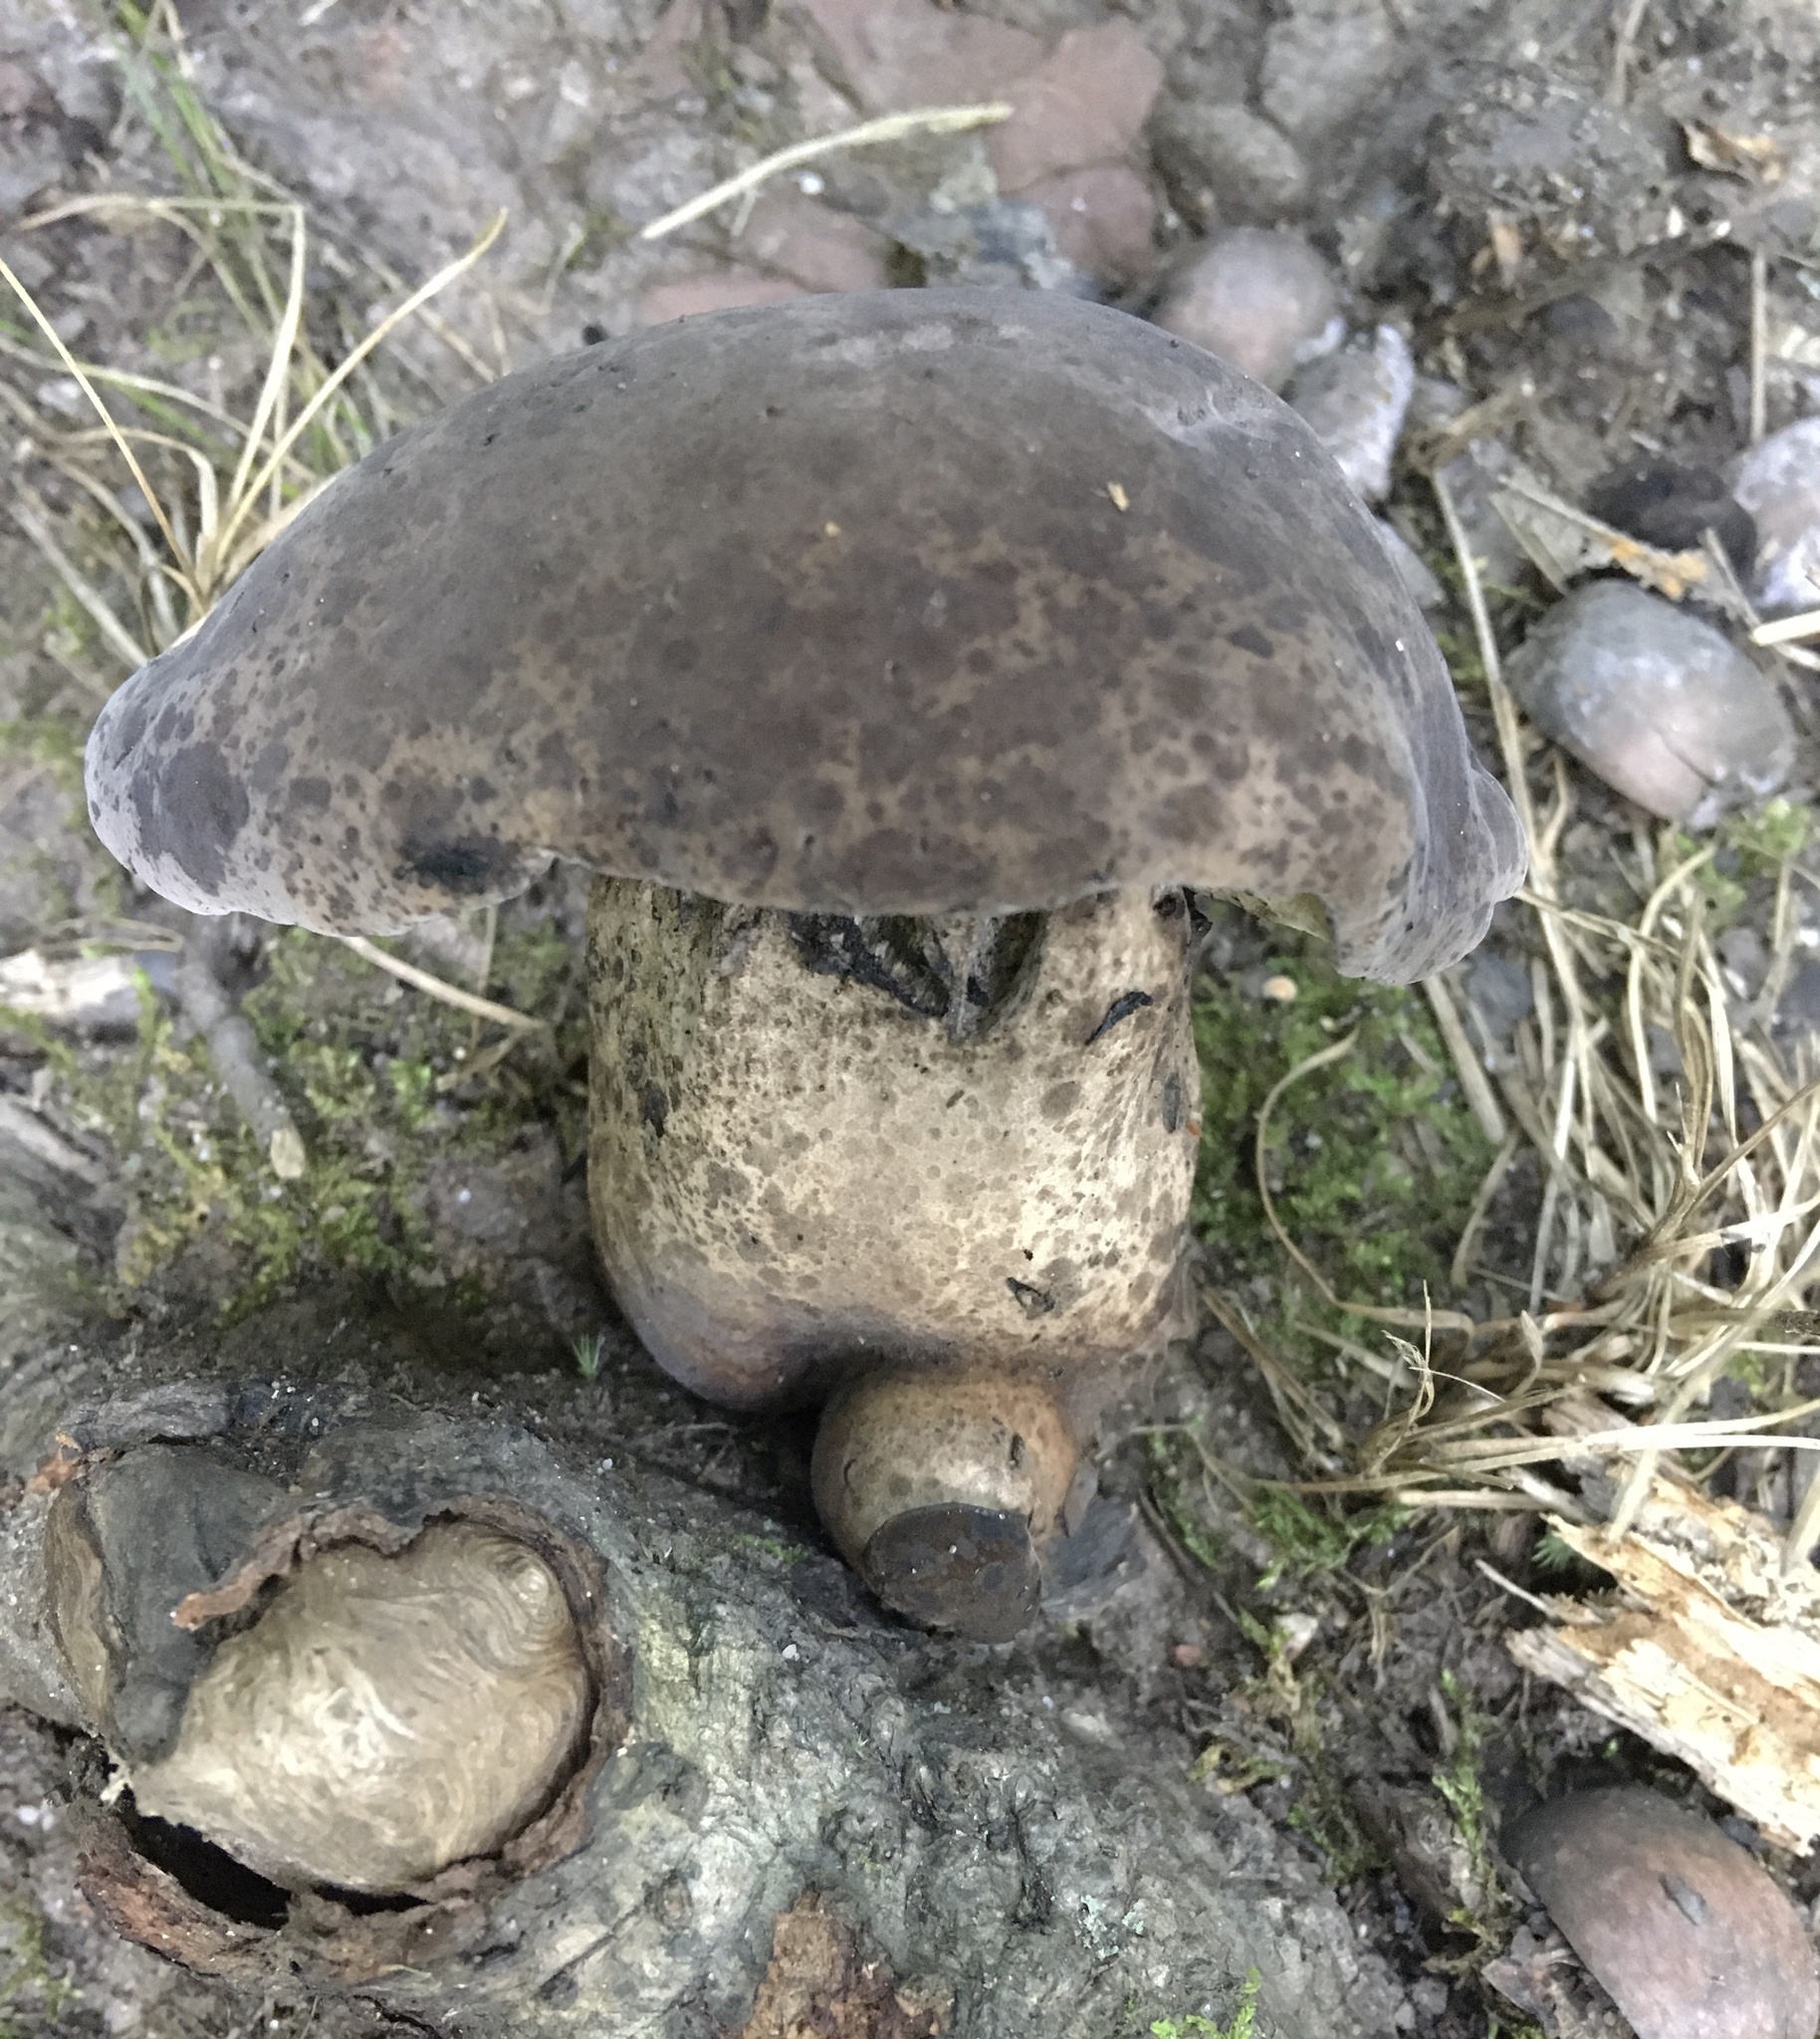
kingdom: Fungi
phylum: Basidiomycota
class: Agaricomycetes
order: Boletales
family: Boletaceae
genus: Tylopilus
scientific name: Tylopilus alboater
